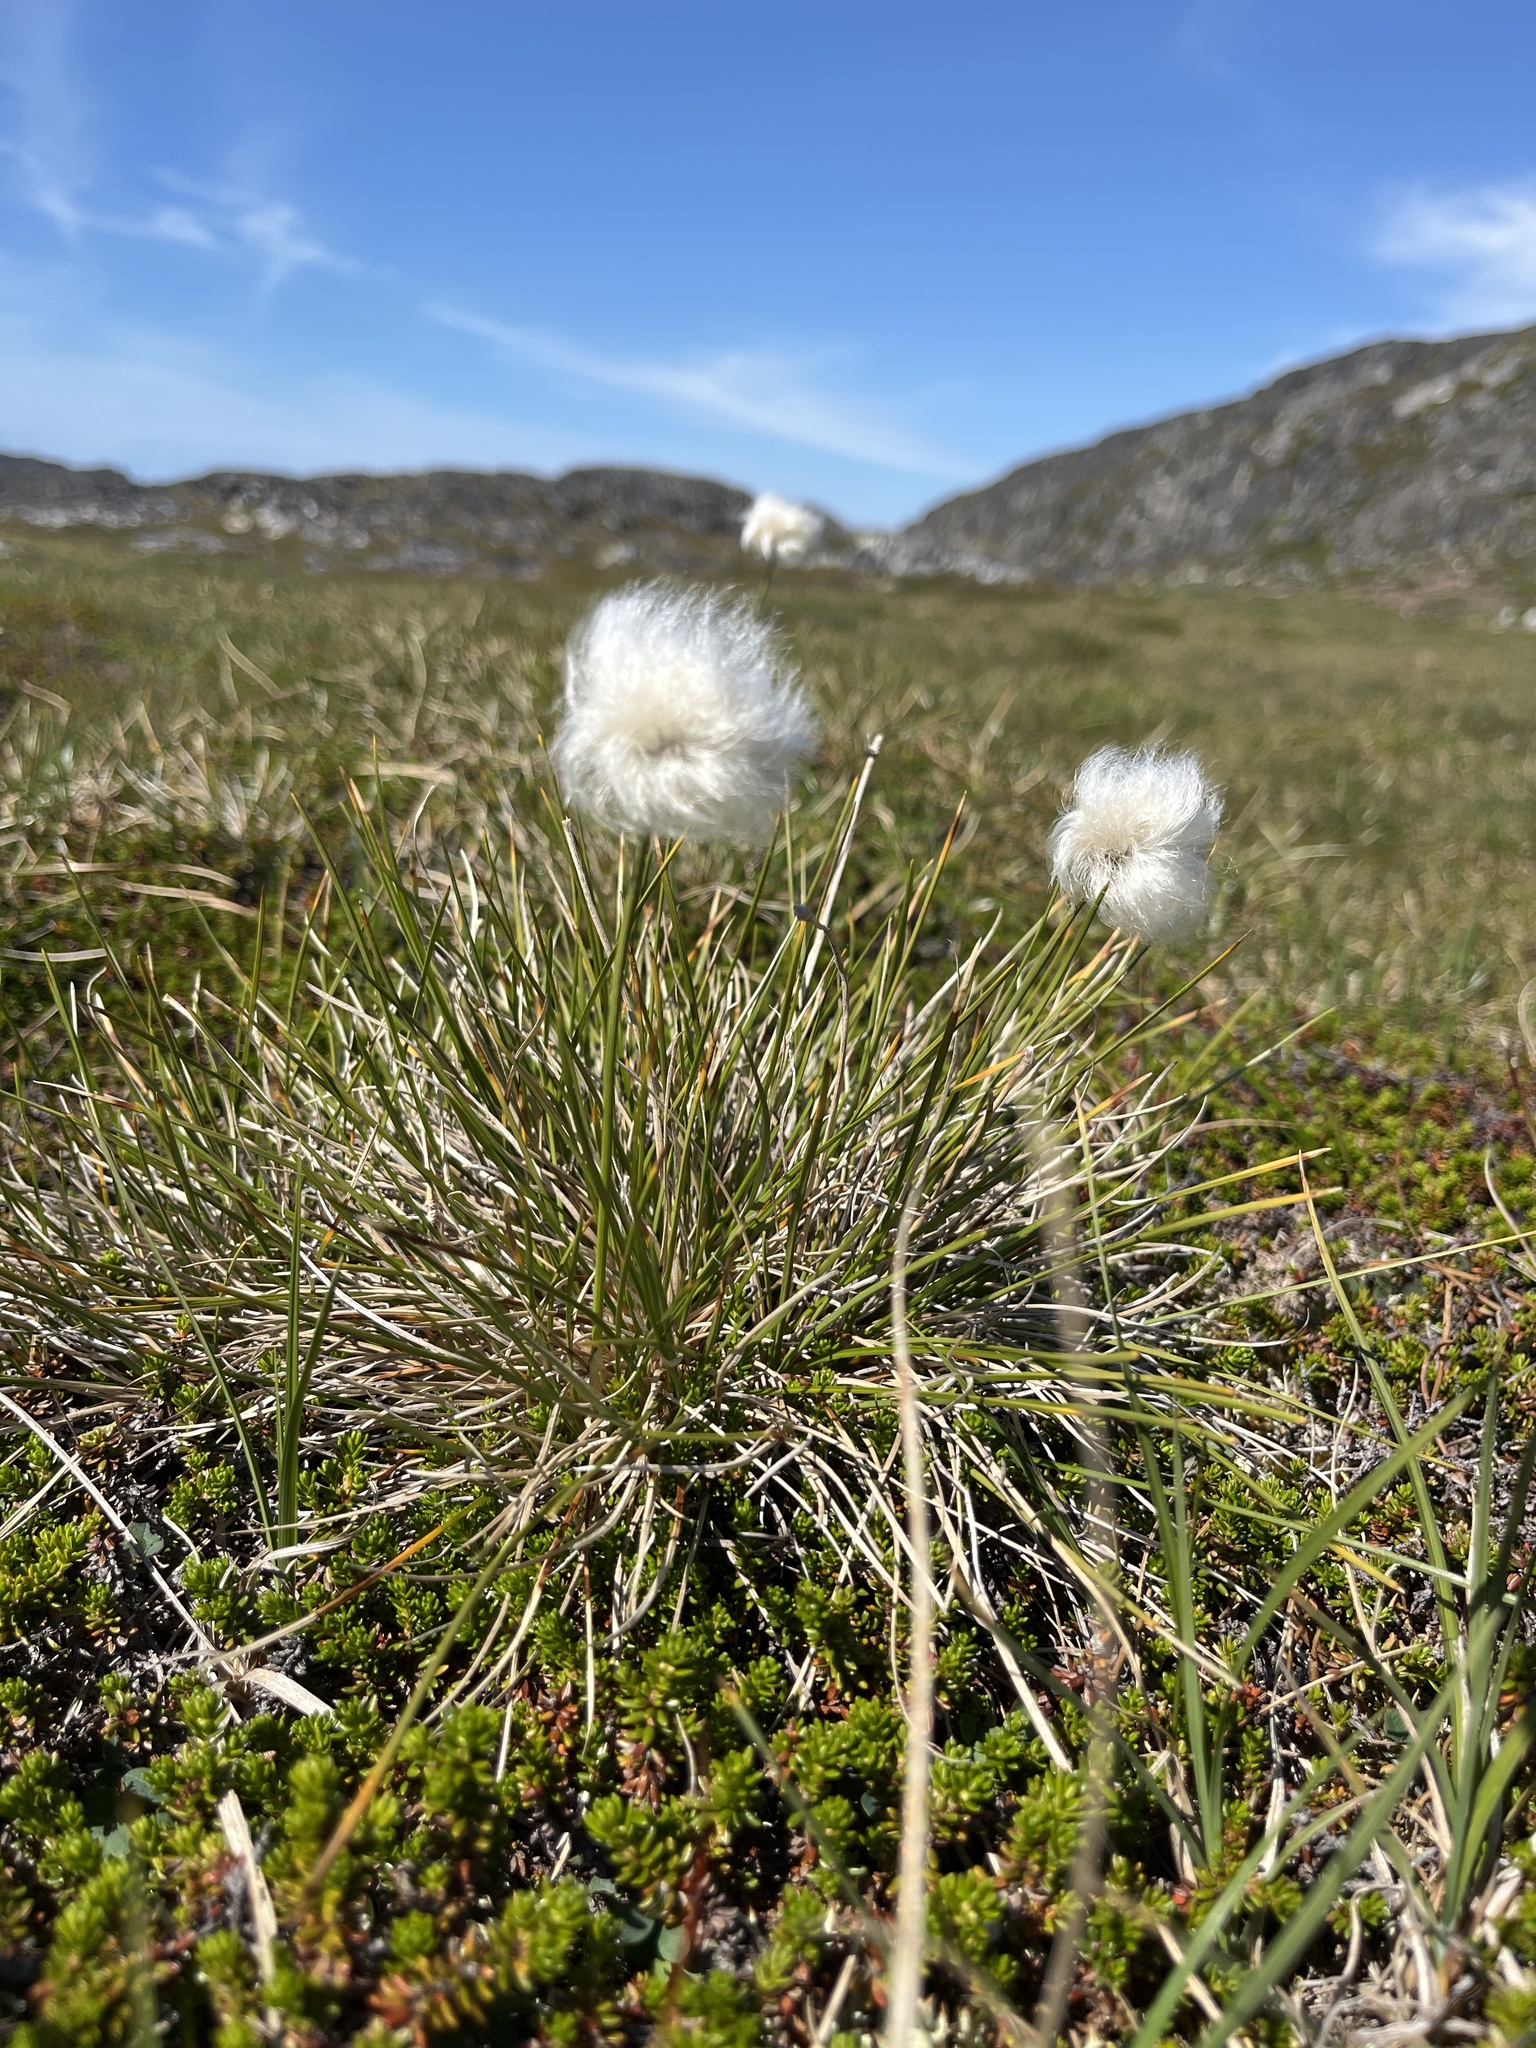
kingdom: Plantae
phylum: Tracheophyta
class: Liliopsida
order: Poales
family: Cyperaceae
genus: Eriophorum
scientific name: Eriophorum vaginatum
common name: Hare's-tail cottongrass
